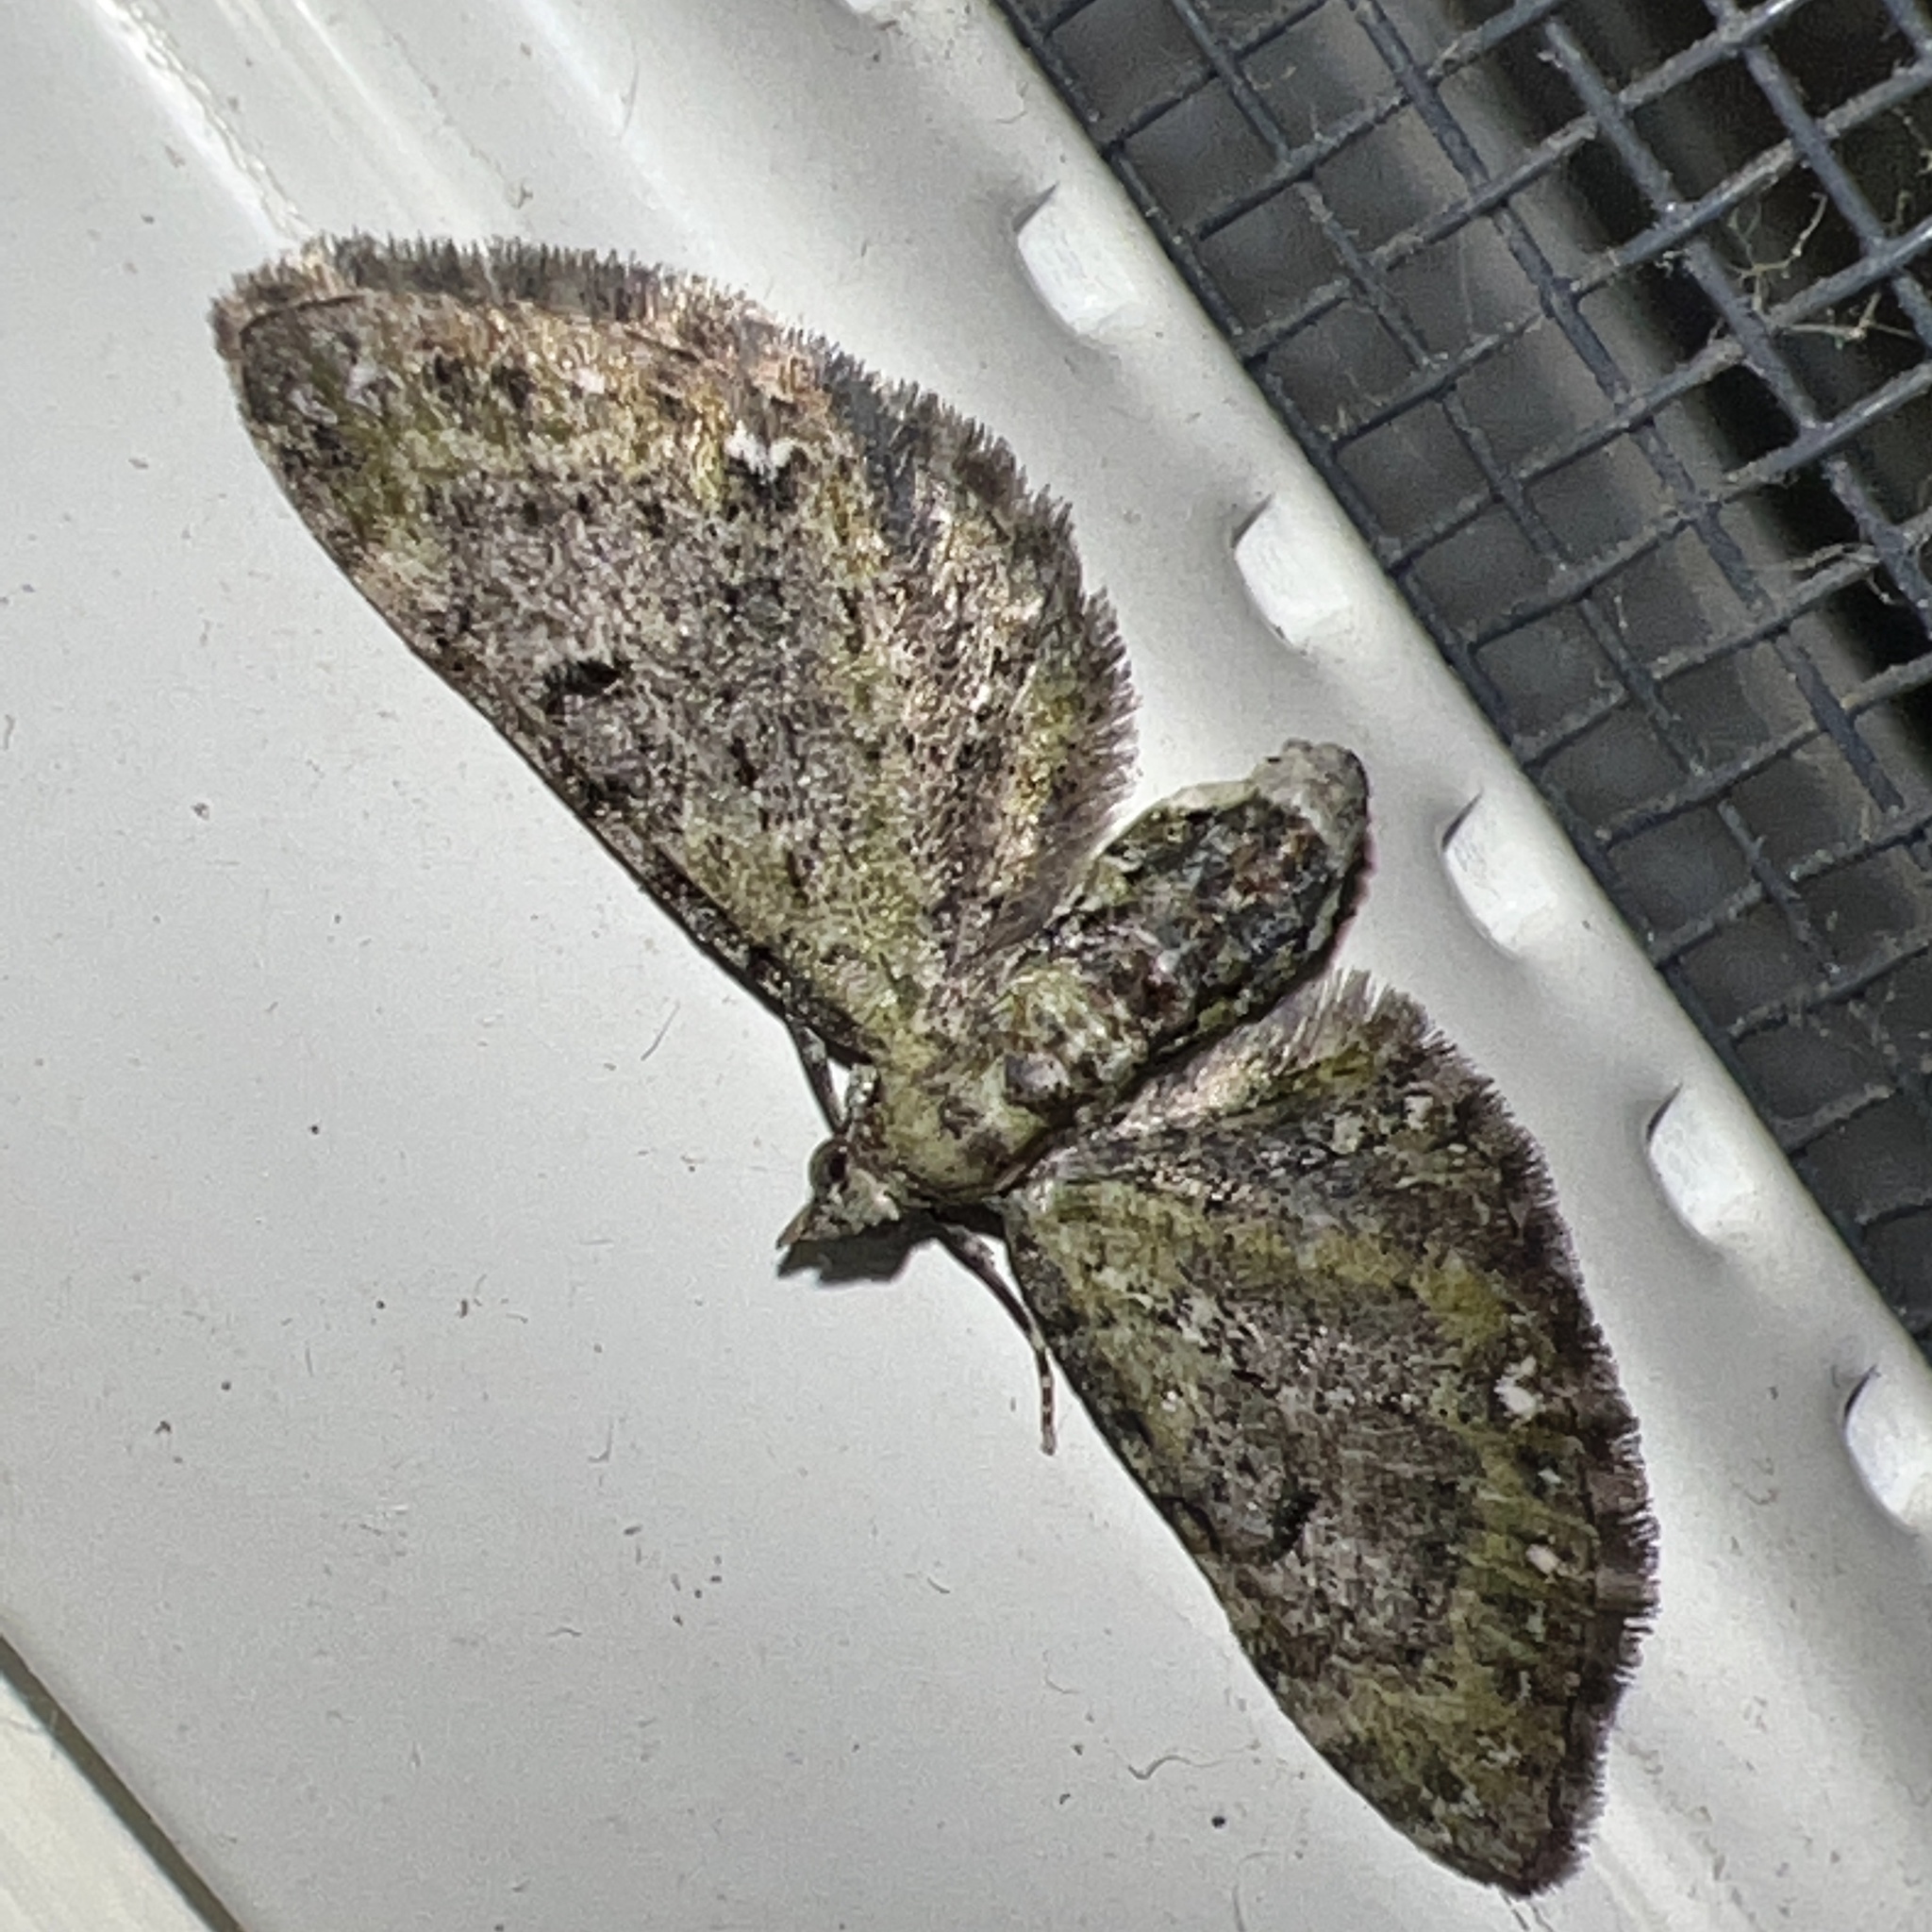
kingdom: Animalia
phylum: Arthropoda
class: Insecta
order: Lepidoptera
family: Geometridae
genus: Eupithecia
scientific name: Eupithecia miserulata
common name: Common eupithecia
